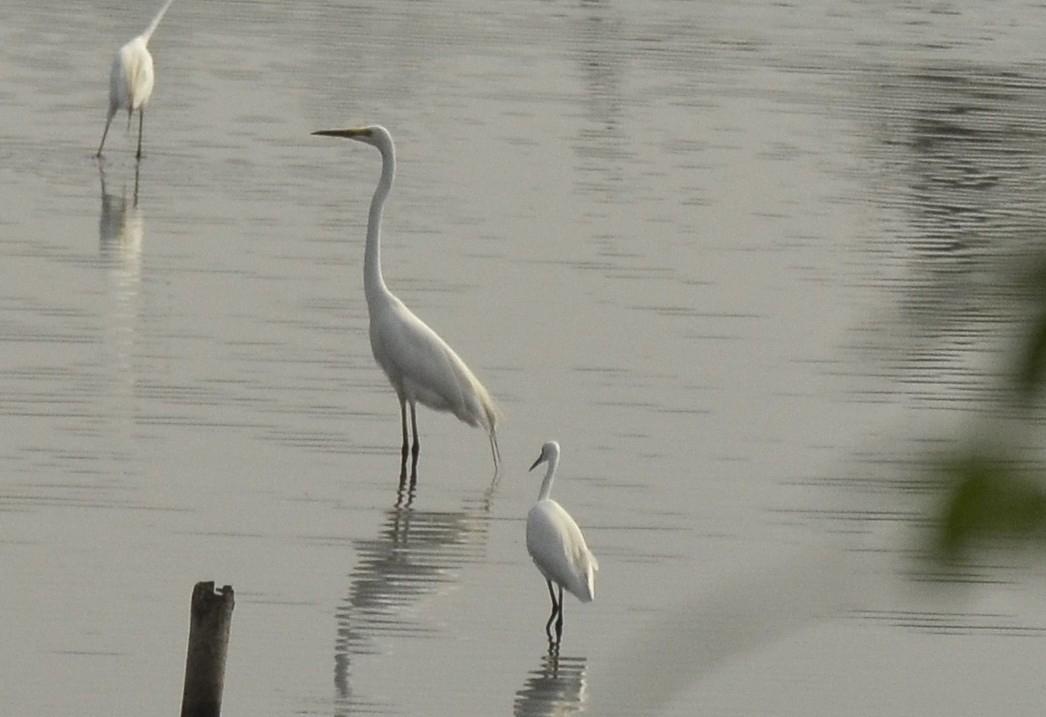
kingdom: Animalia
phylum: Chordata
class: Aves
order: Pelecaniformes
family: Ardeidae
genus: Ardea
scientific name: Ardea alba
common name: Great egret
